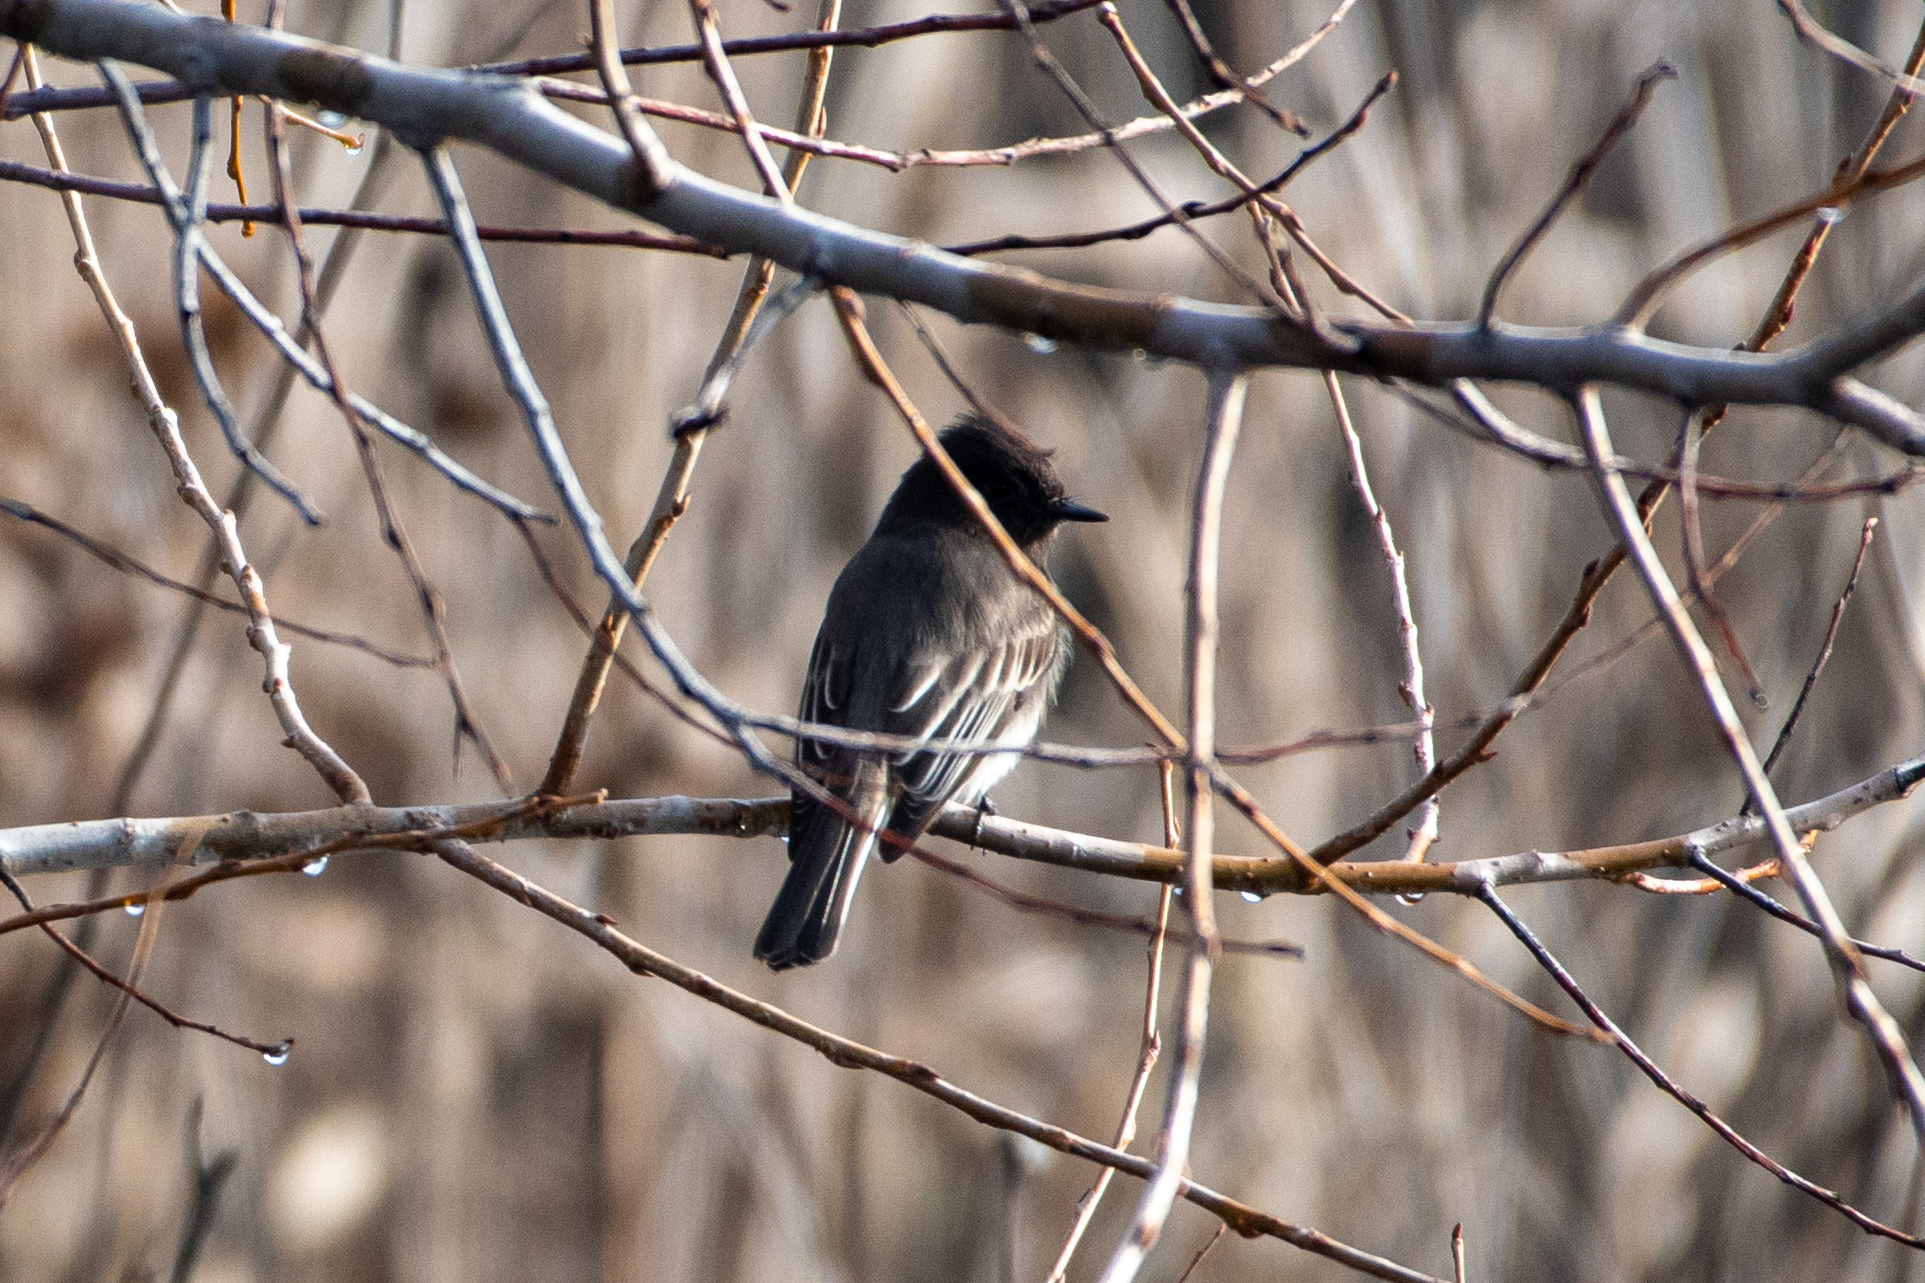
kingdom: Animalia
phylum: Chordata
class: Aves
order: Passeriformes
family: Tyrannidae
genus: Sayornis
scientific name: Sayornis nigricans
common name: Black phoebe
